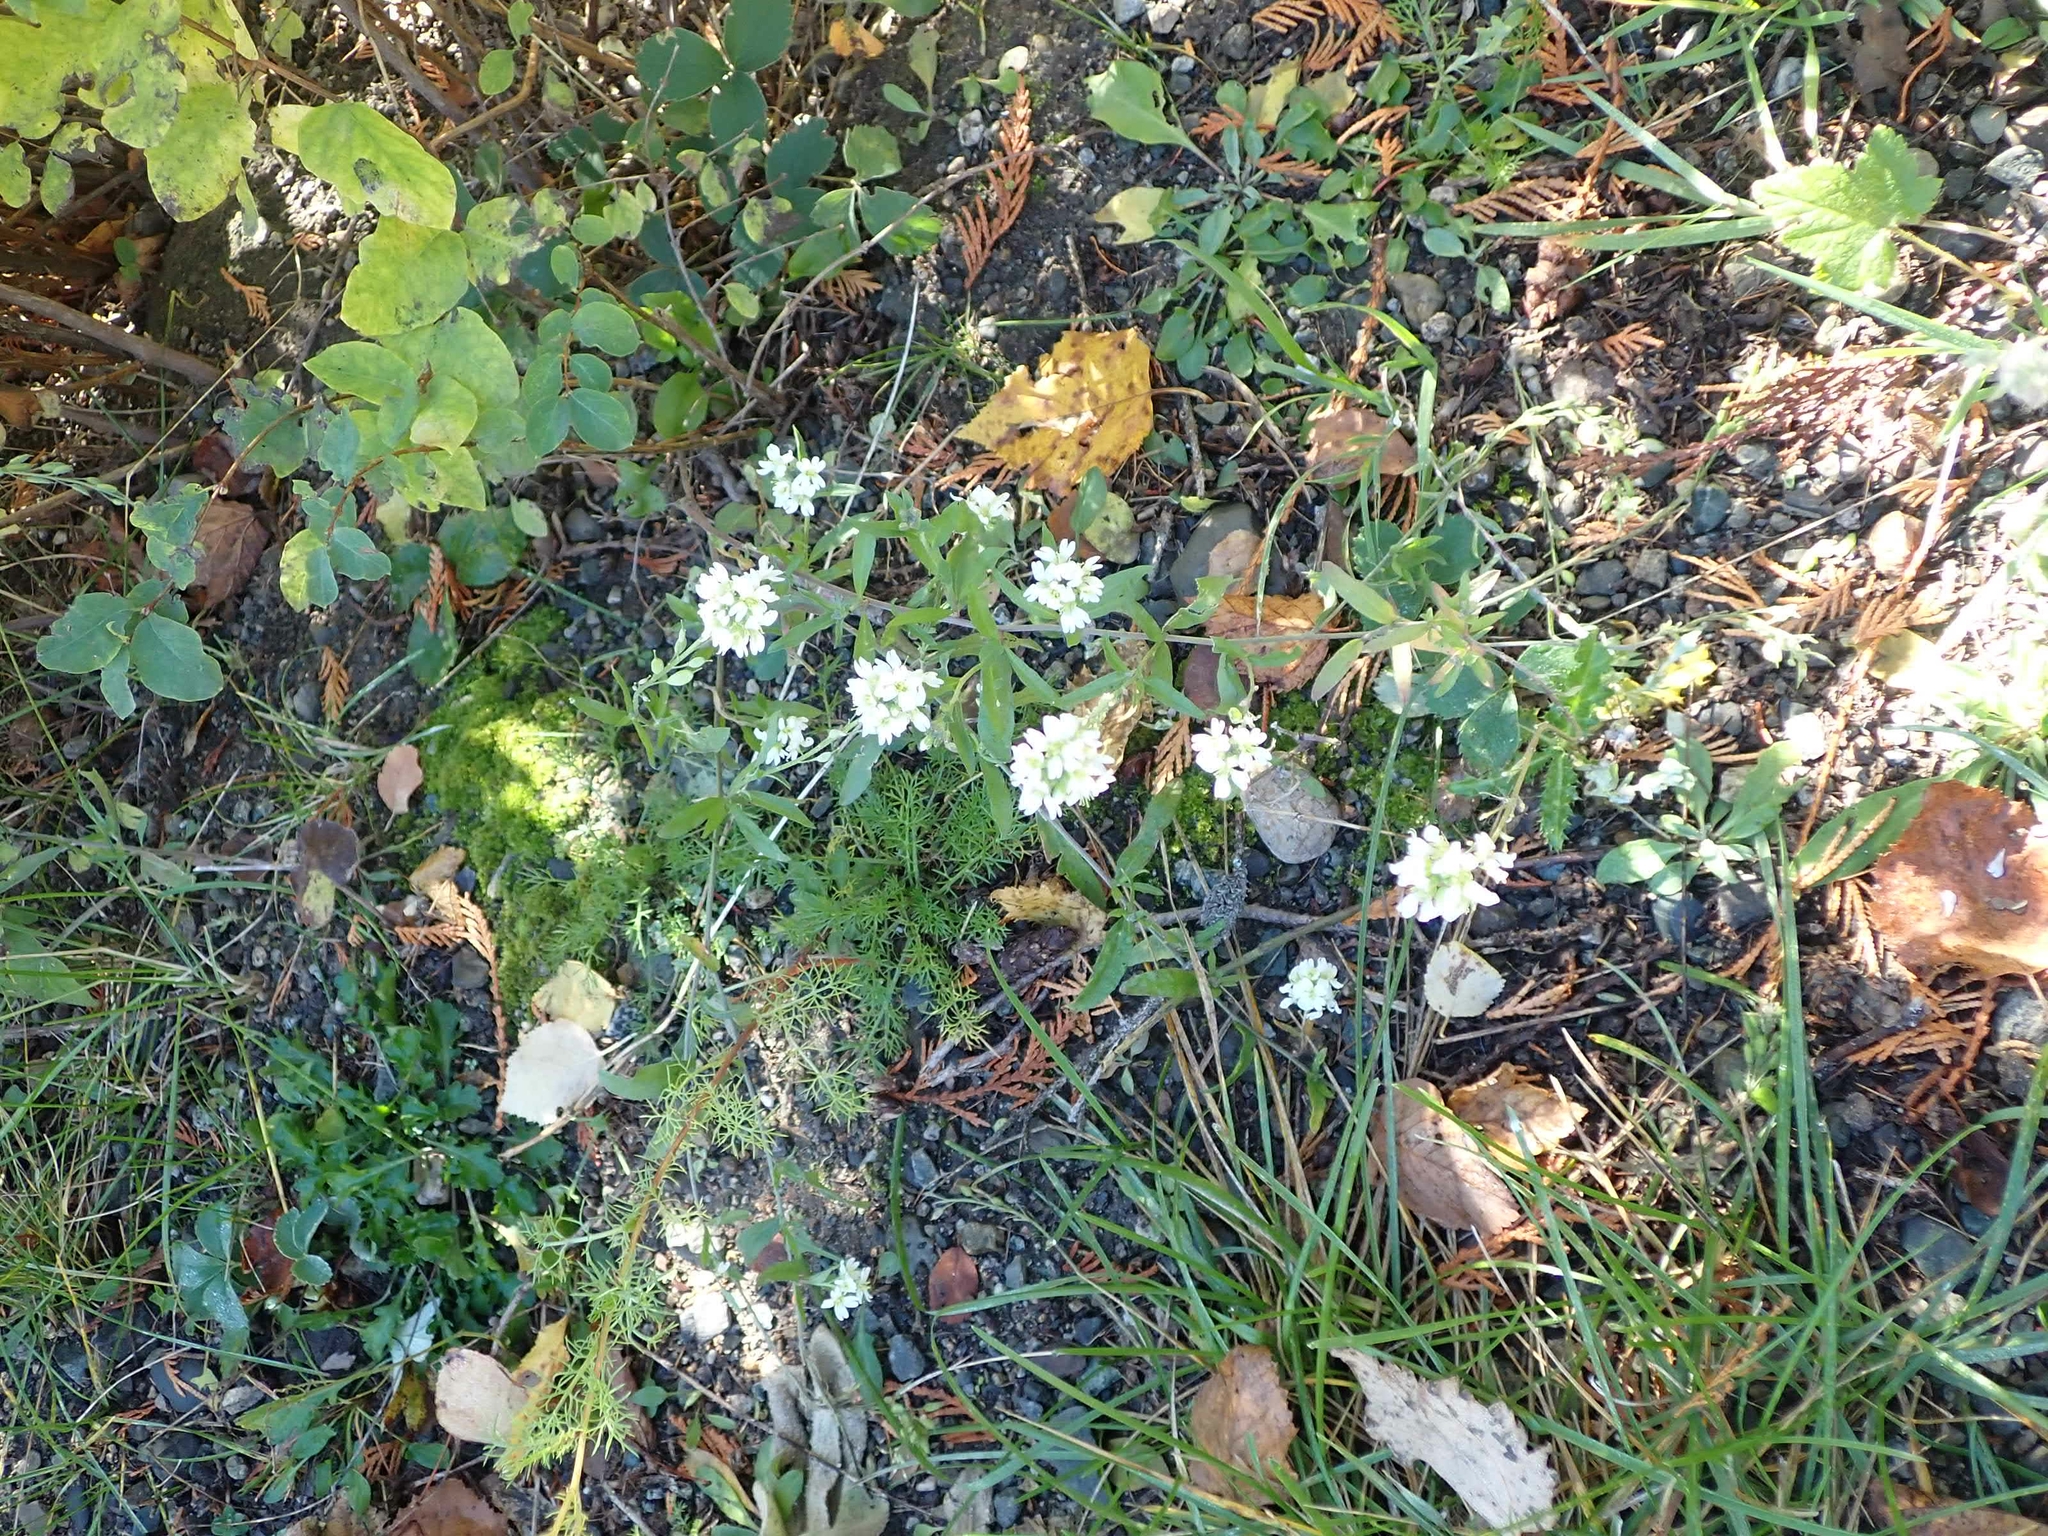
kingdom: Plantae
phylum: Tracheophyta
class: Magnoliopsida
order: Brassicales
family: Brassicaceae
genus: Berteroa
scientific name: Berteroa incana
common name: Hoary alison
